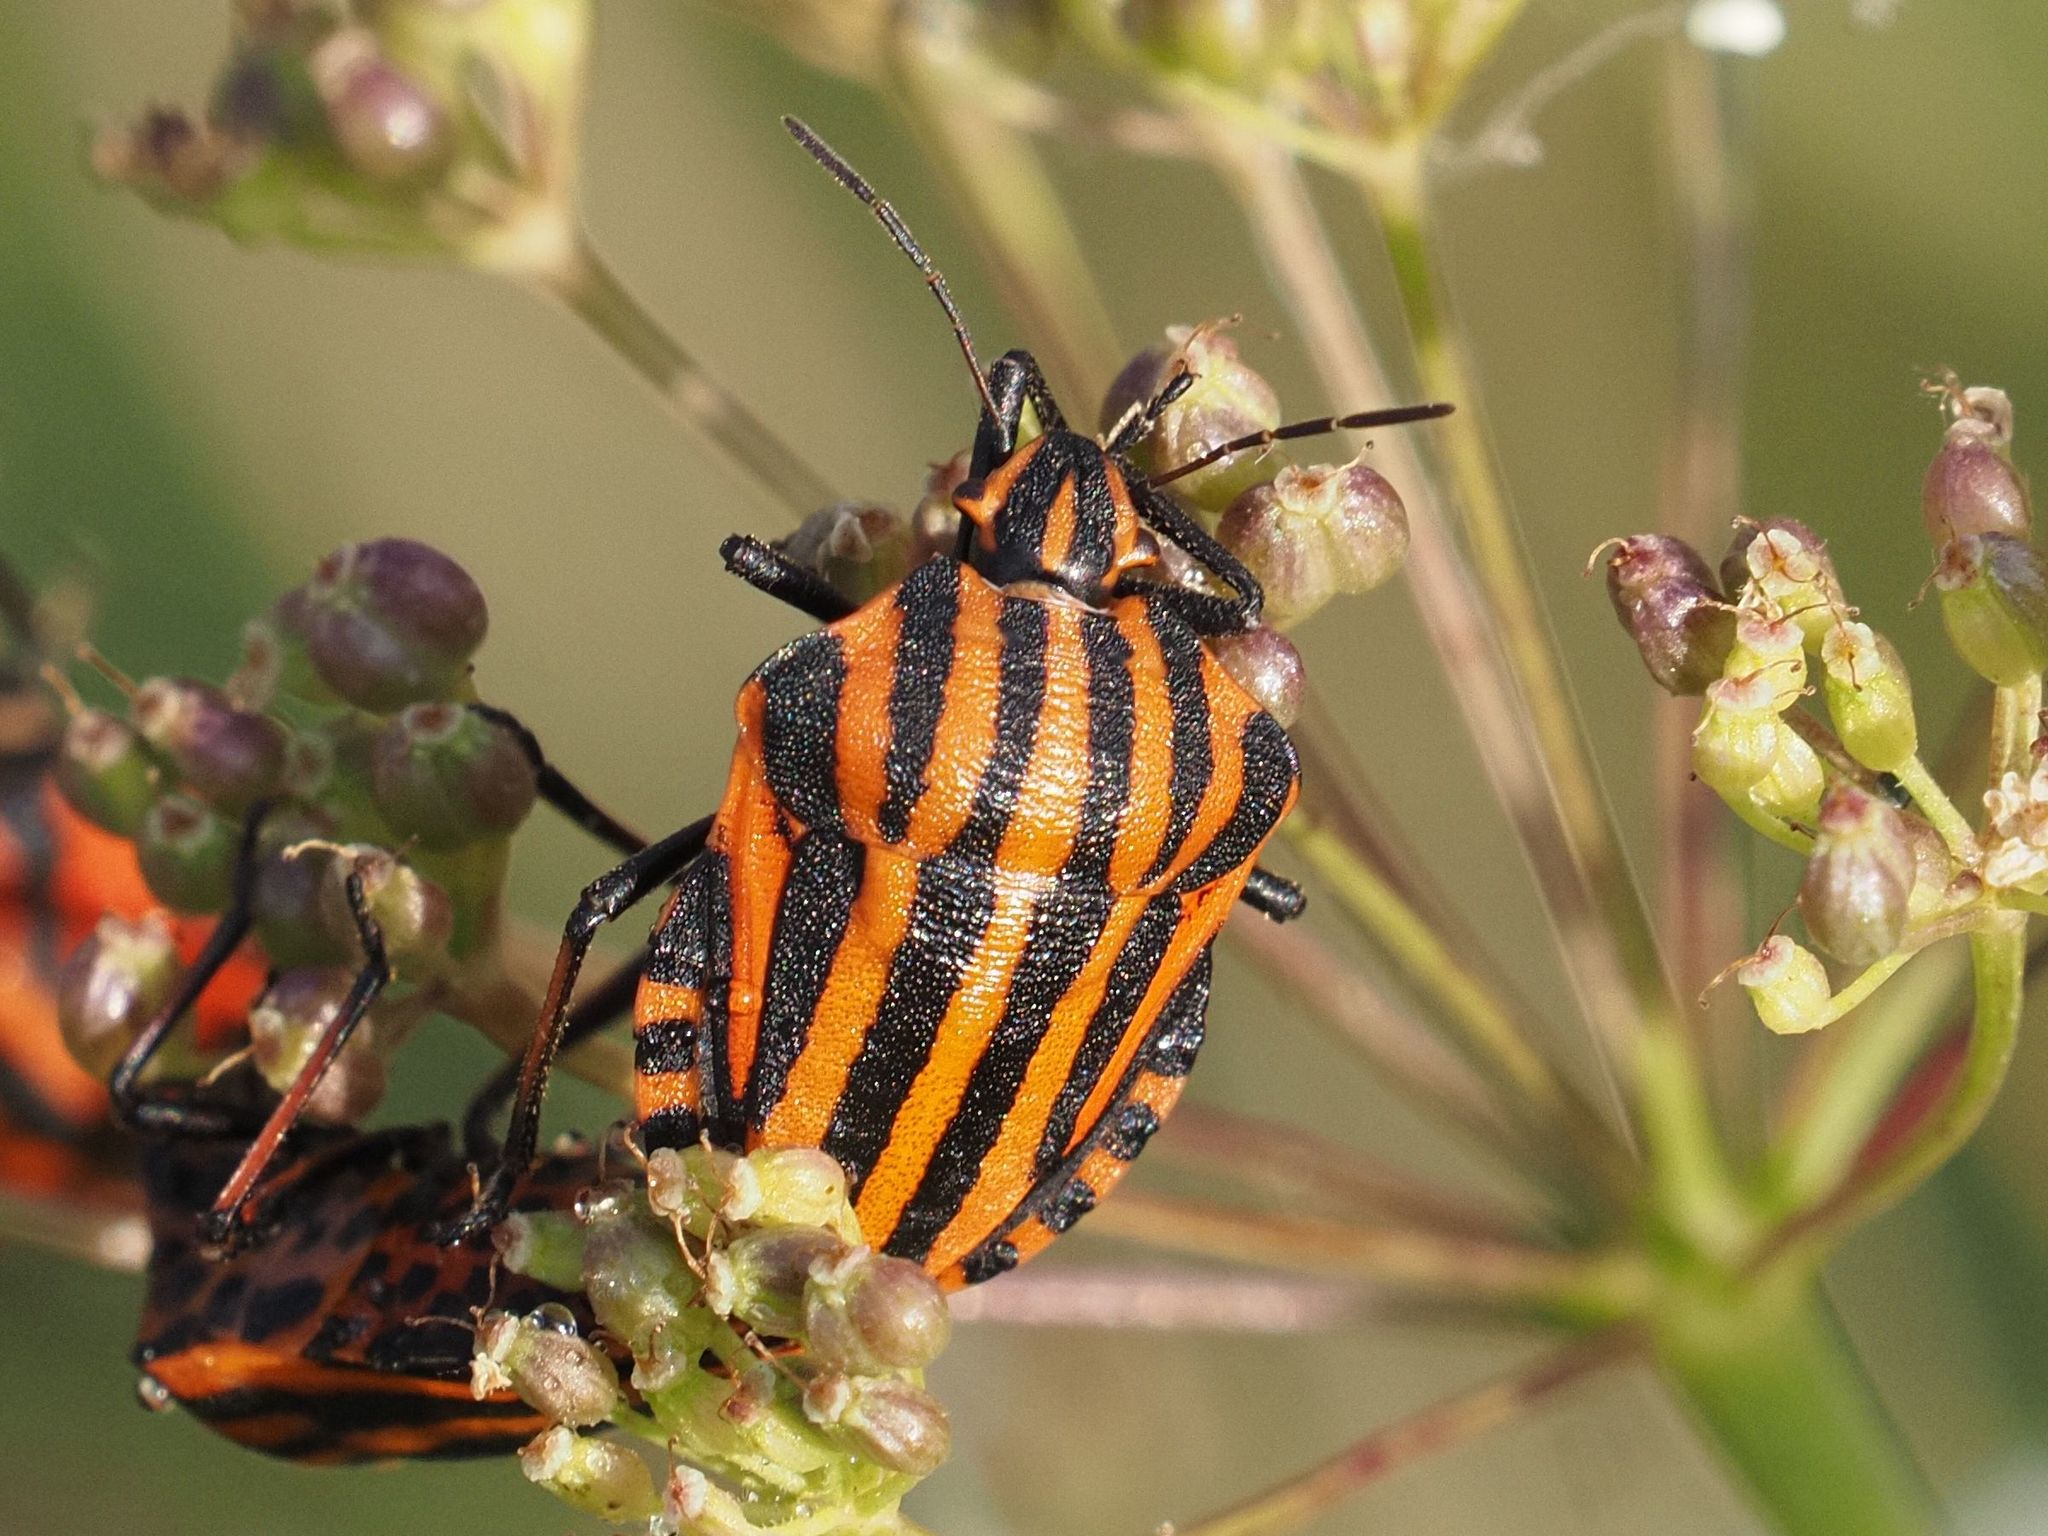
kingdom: Animalia
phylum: Arthropoda
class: Insecta
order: Hemiptera
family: Pentatomidae
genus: Graphosoma
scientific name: Graphosoma italicum
